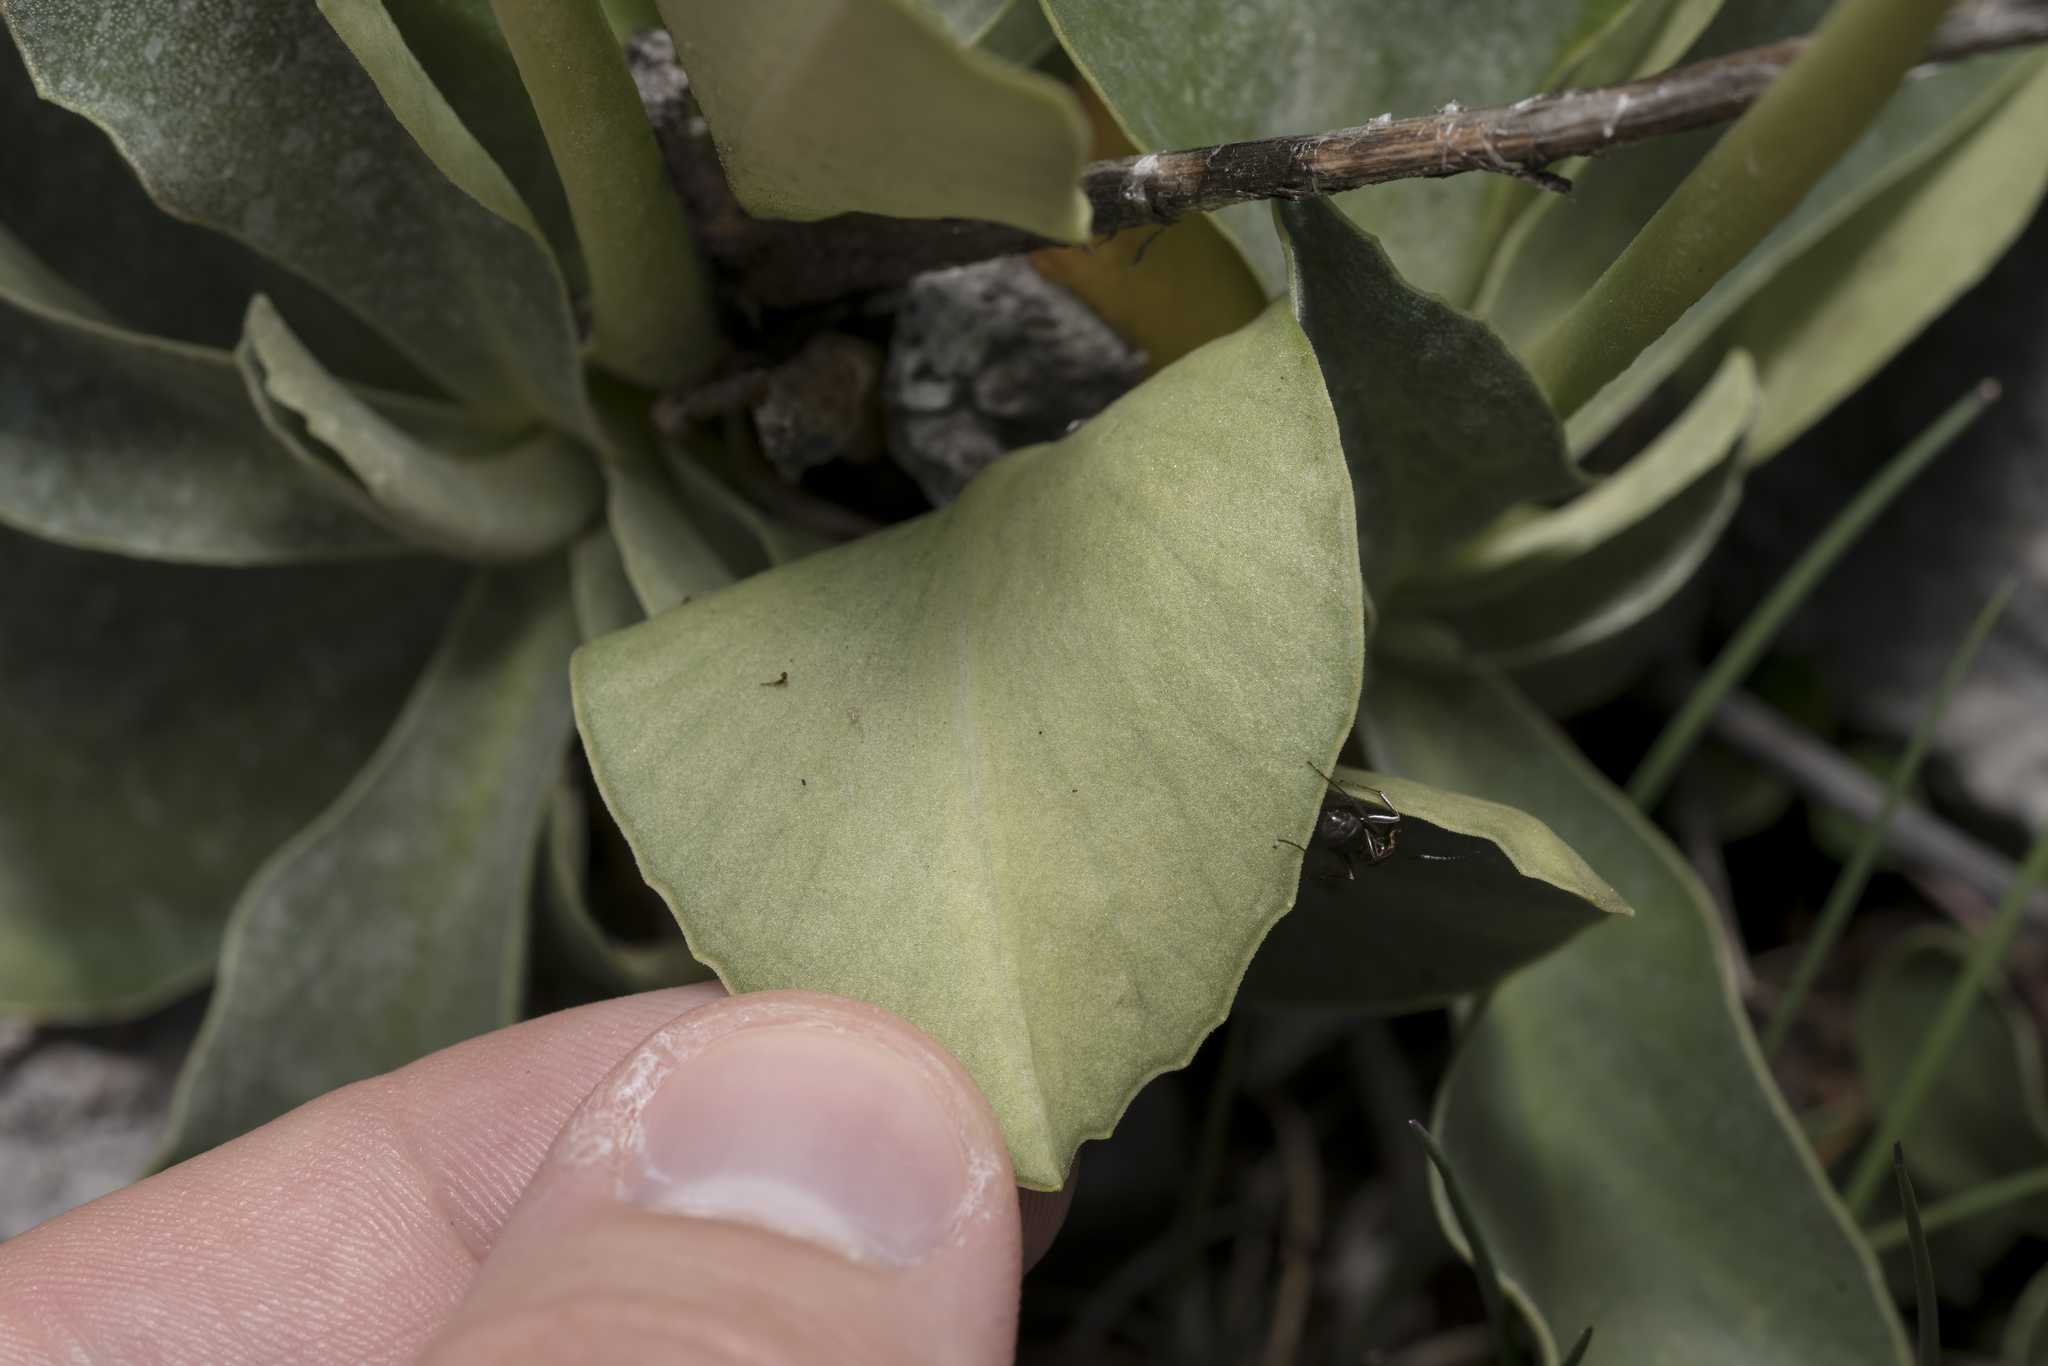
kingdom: Plantae
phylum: Tracheophyta
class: Magnoliopsida
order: Ericales
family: Primulaceae
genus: Primula
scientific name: Primula auricula
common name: Auricula
